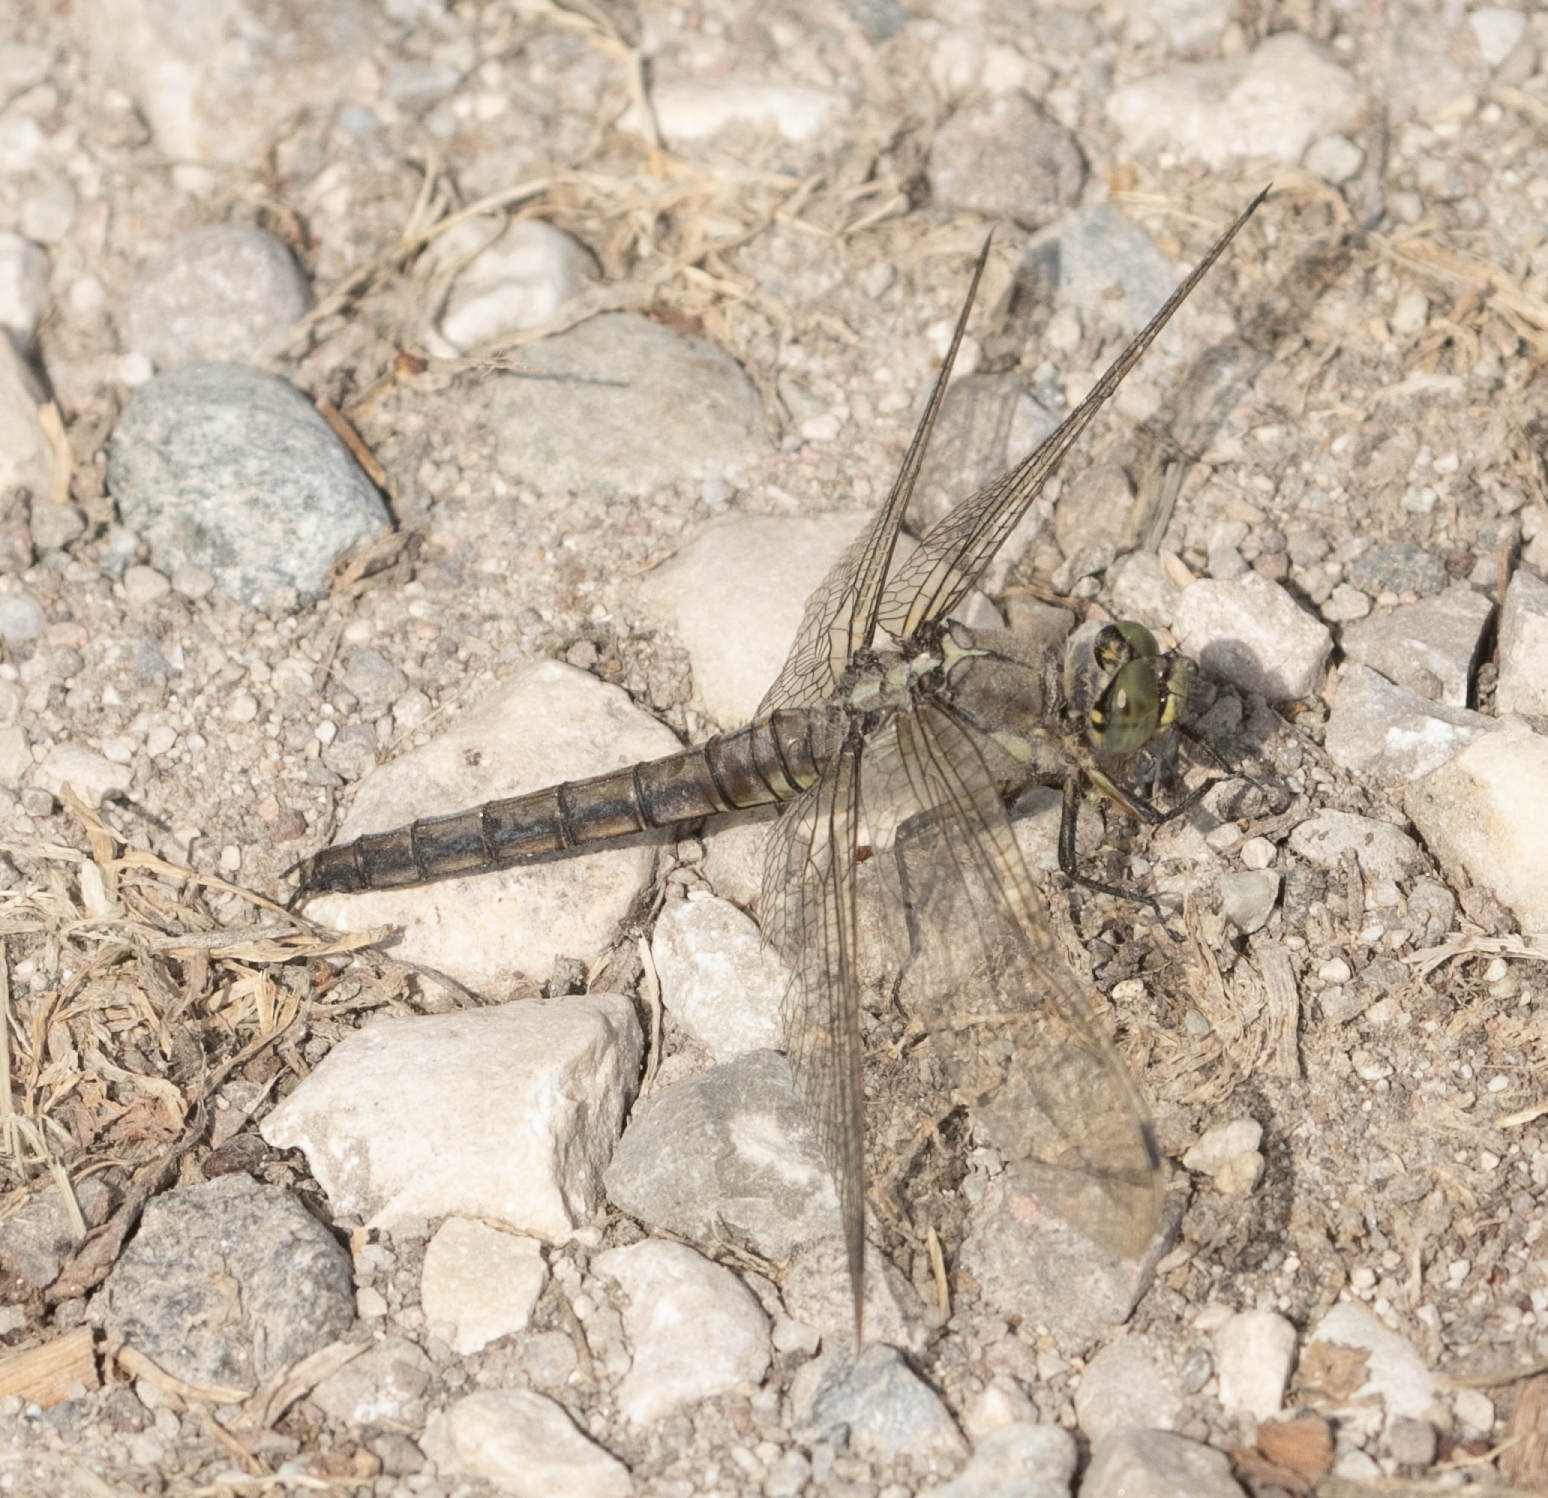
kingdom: Animalia
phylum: Arthropoda
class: Insecta
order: Odonata
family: Libellulidae
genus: Orthetrum
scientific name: Orthetrum cancellatum
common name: Black-tailed skimmer
